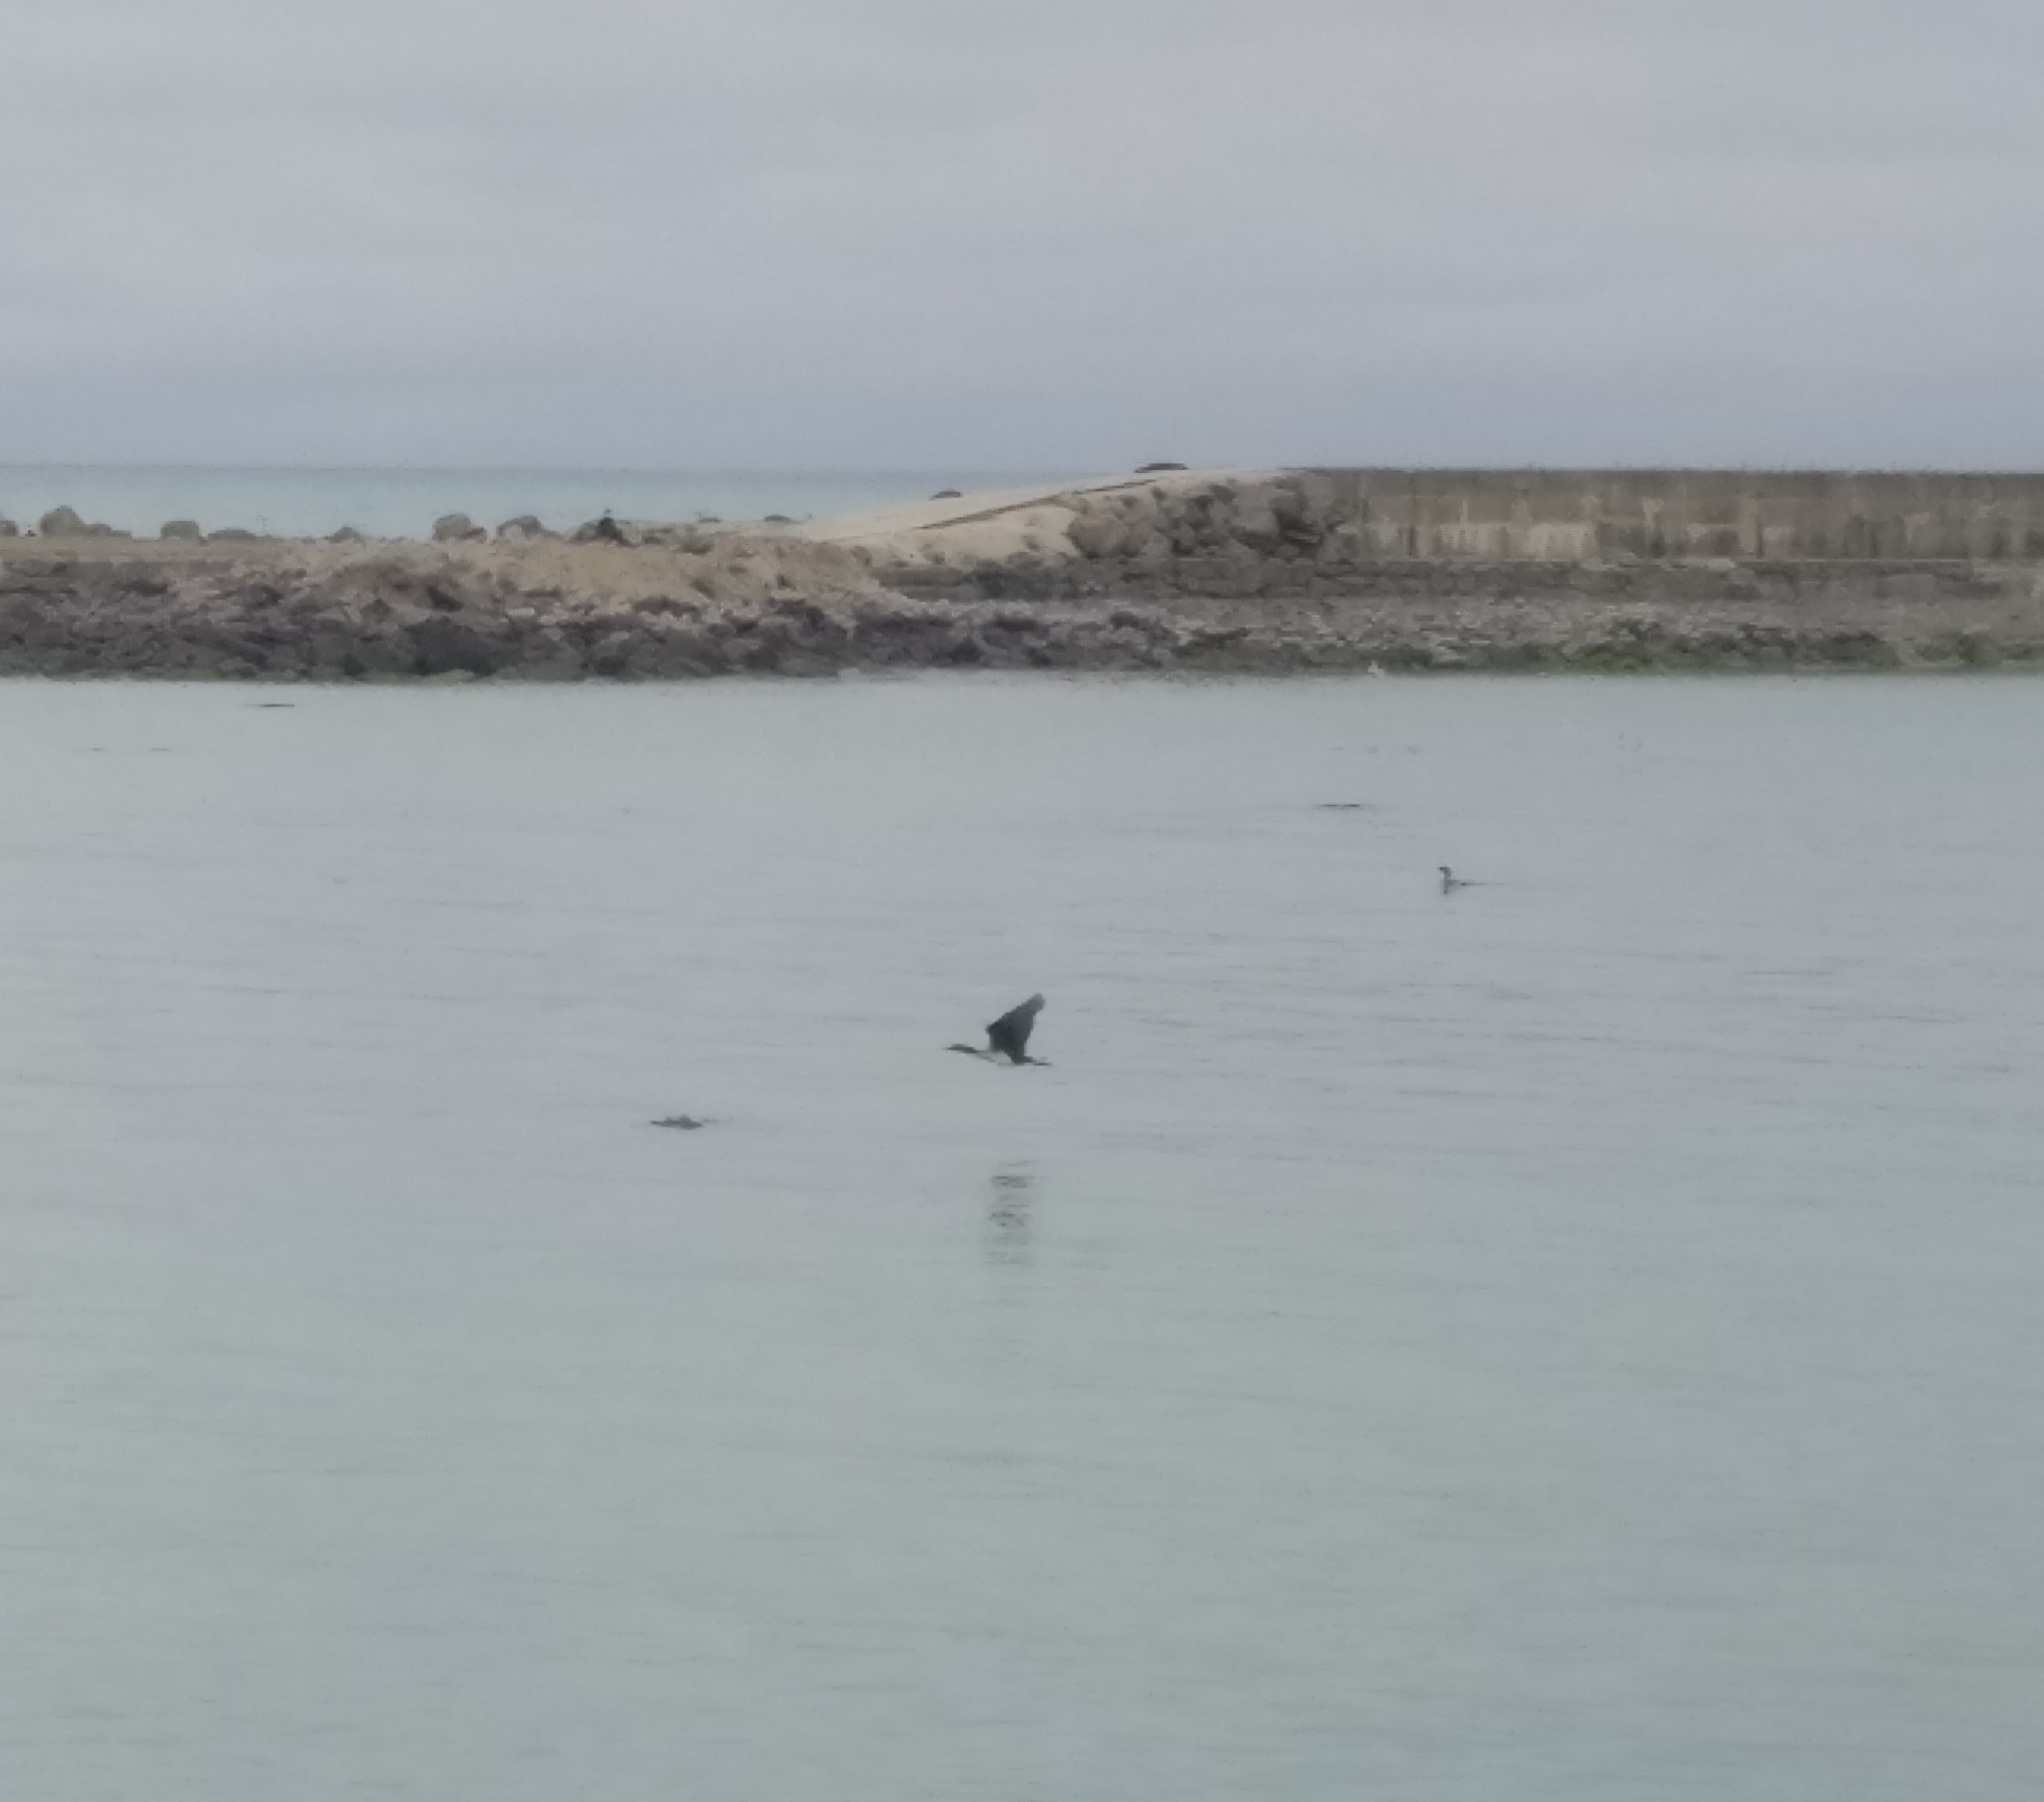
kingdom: Animalia
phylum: Chordata
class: Aves
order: Suliformes
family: Phalacrocoracidae
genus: Leucocarbo
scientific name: Leucocarbo chalconotus
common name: Stewart shag
